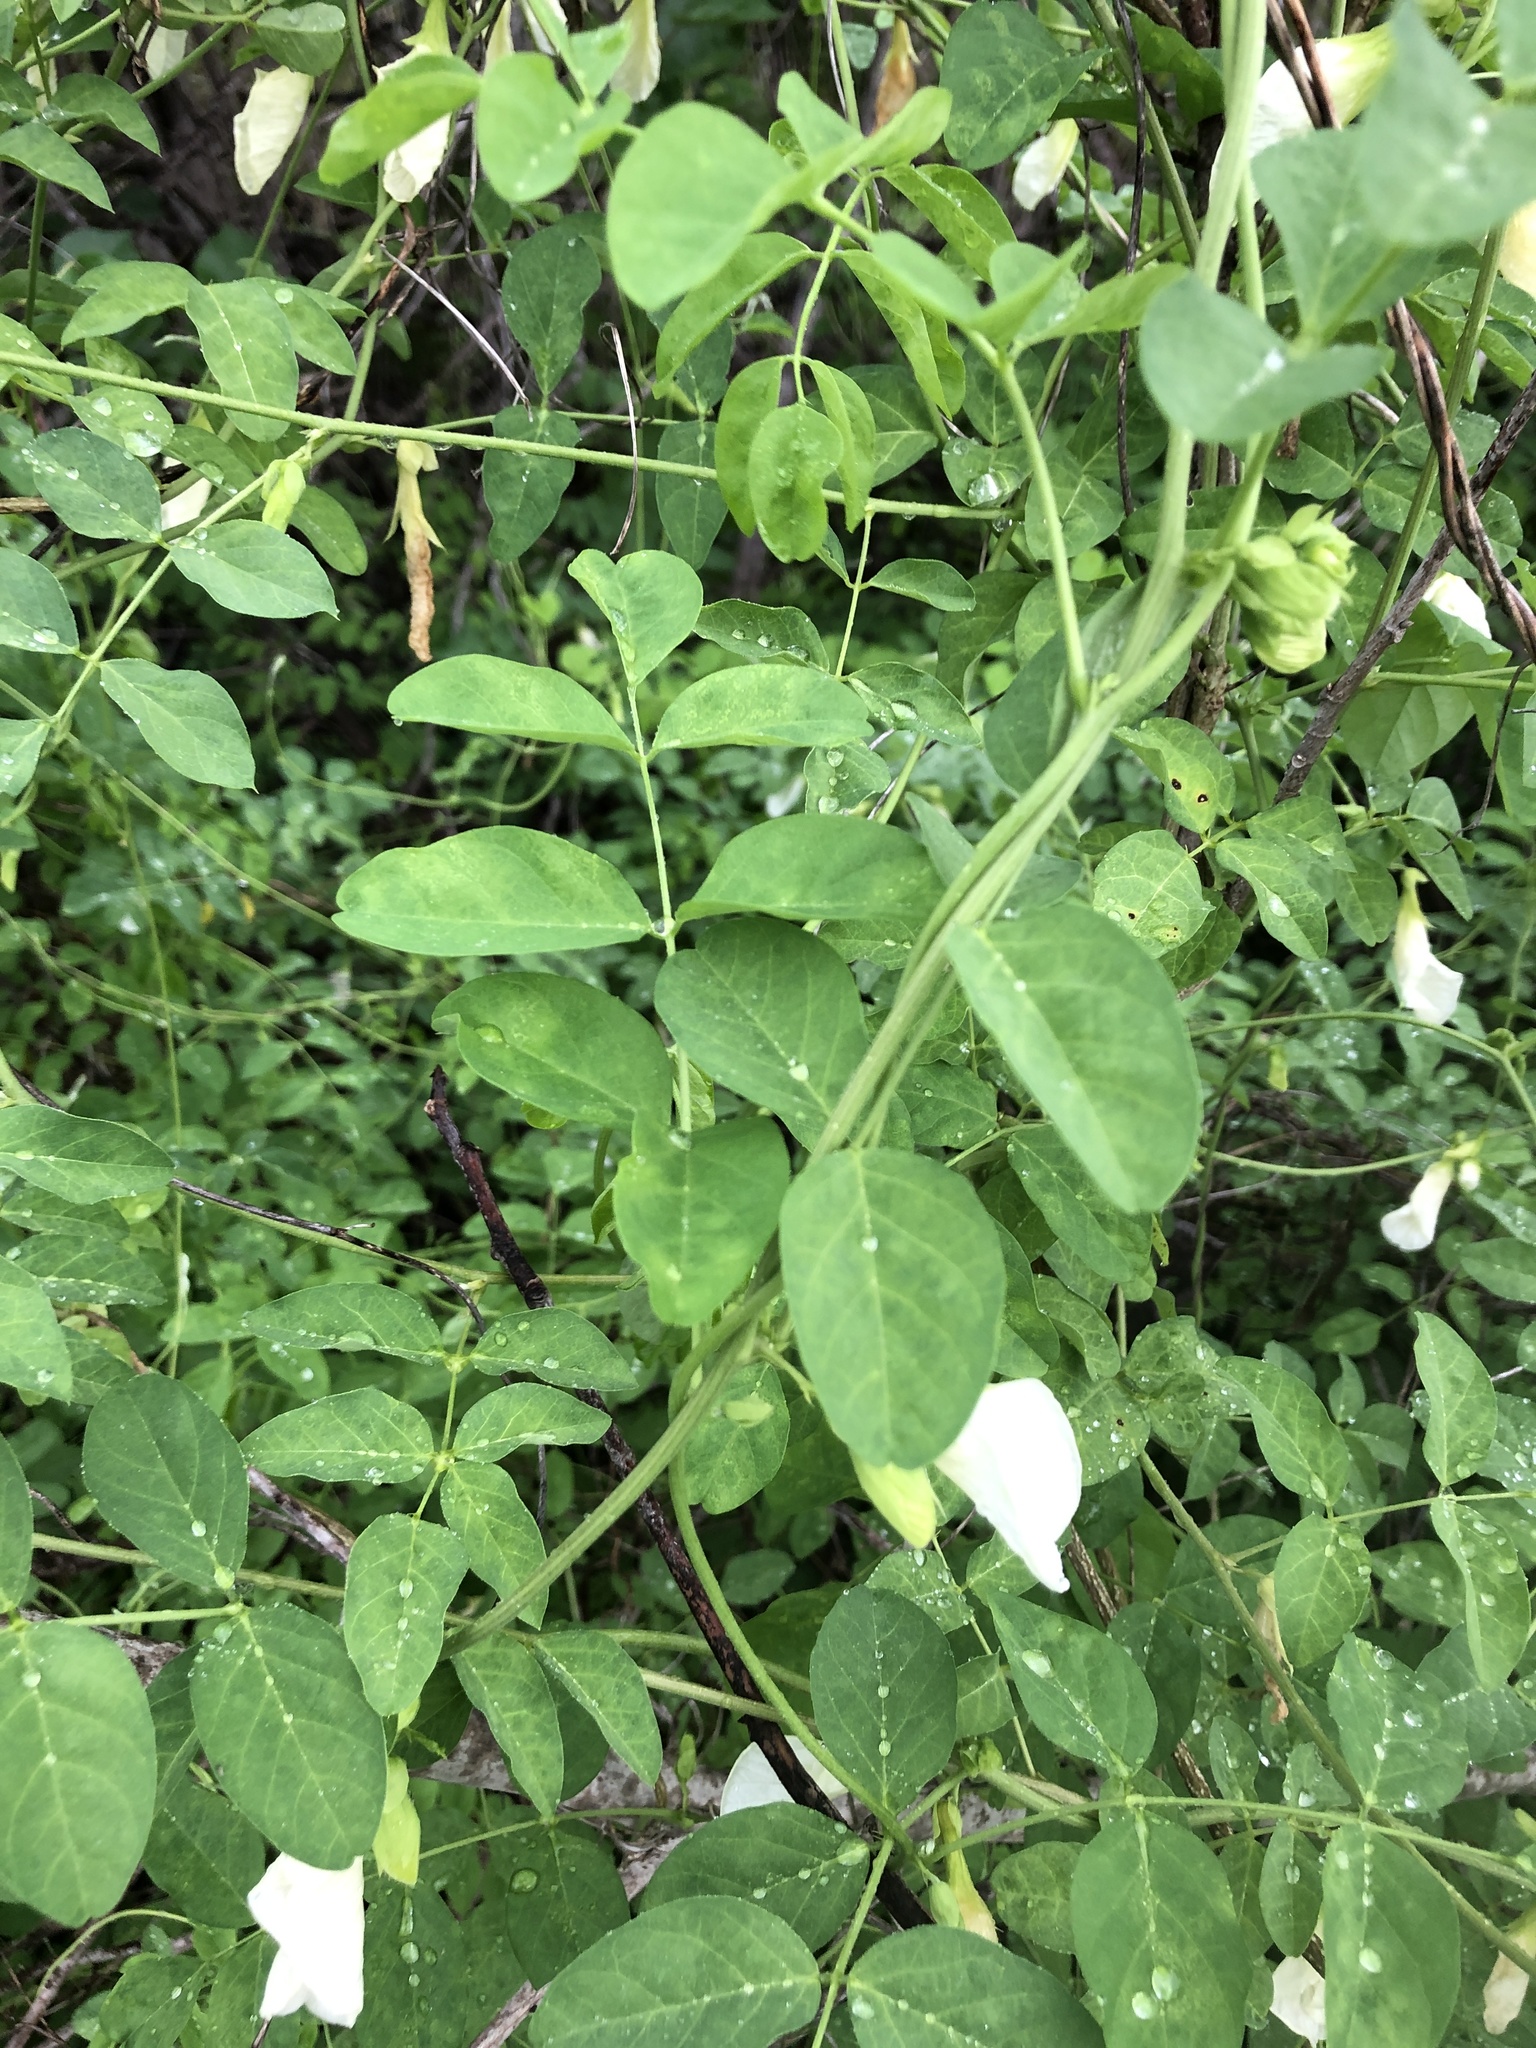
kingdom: Plantae
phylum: Tracheophyta
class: Magnoliopsida
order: Fabales
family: Fabaceae
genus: Clitoria
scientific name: Clitoria ternatea
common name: Asian pigeonwings
